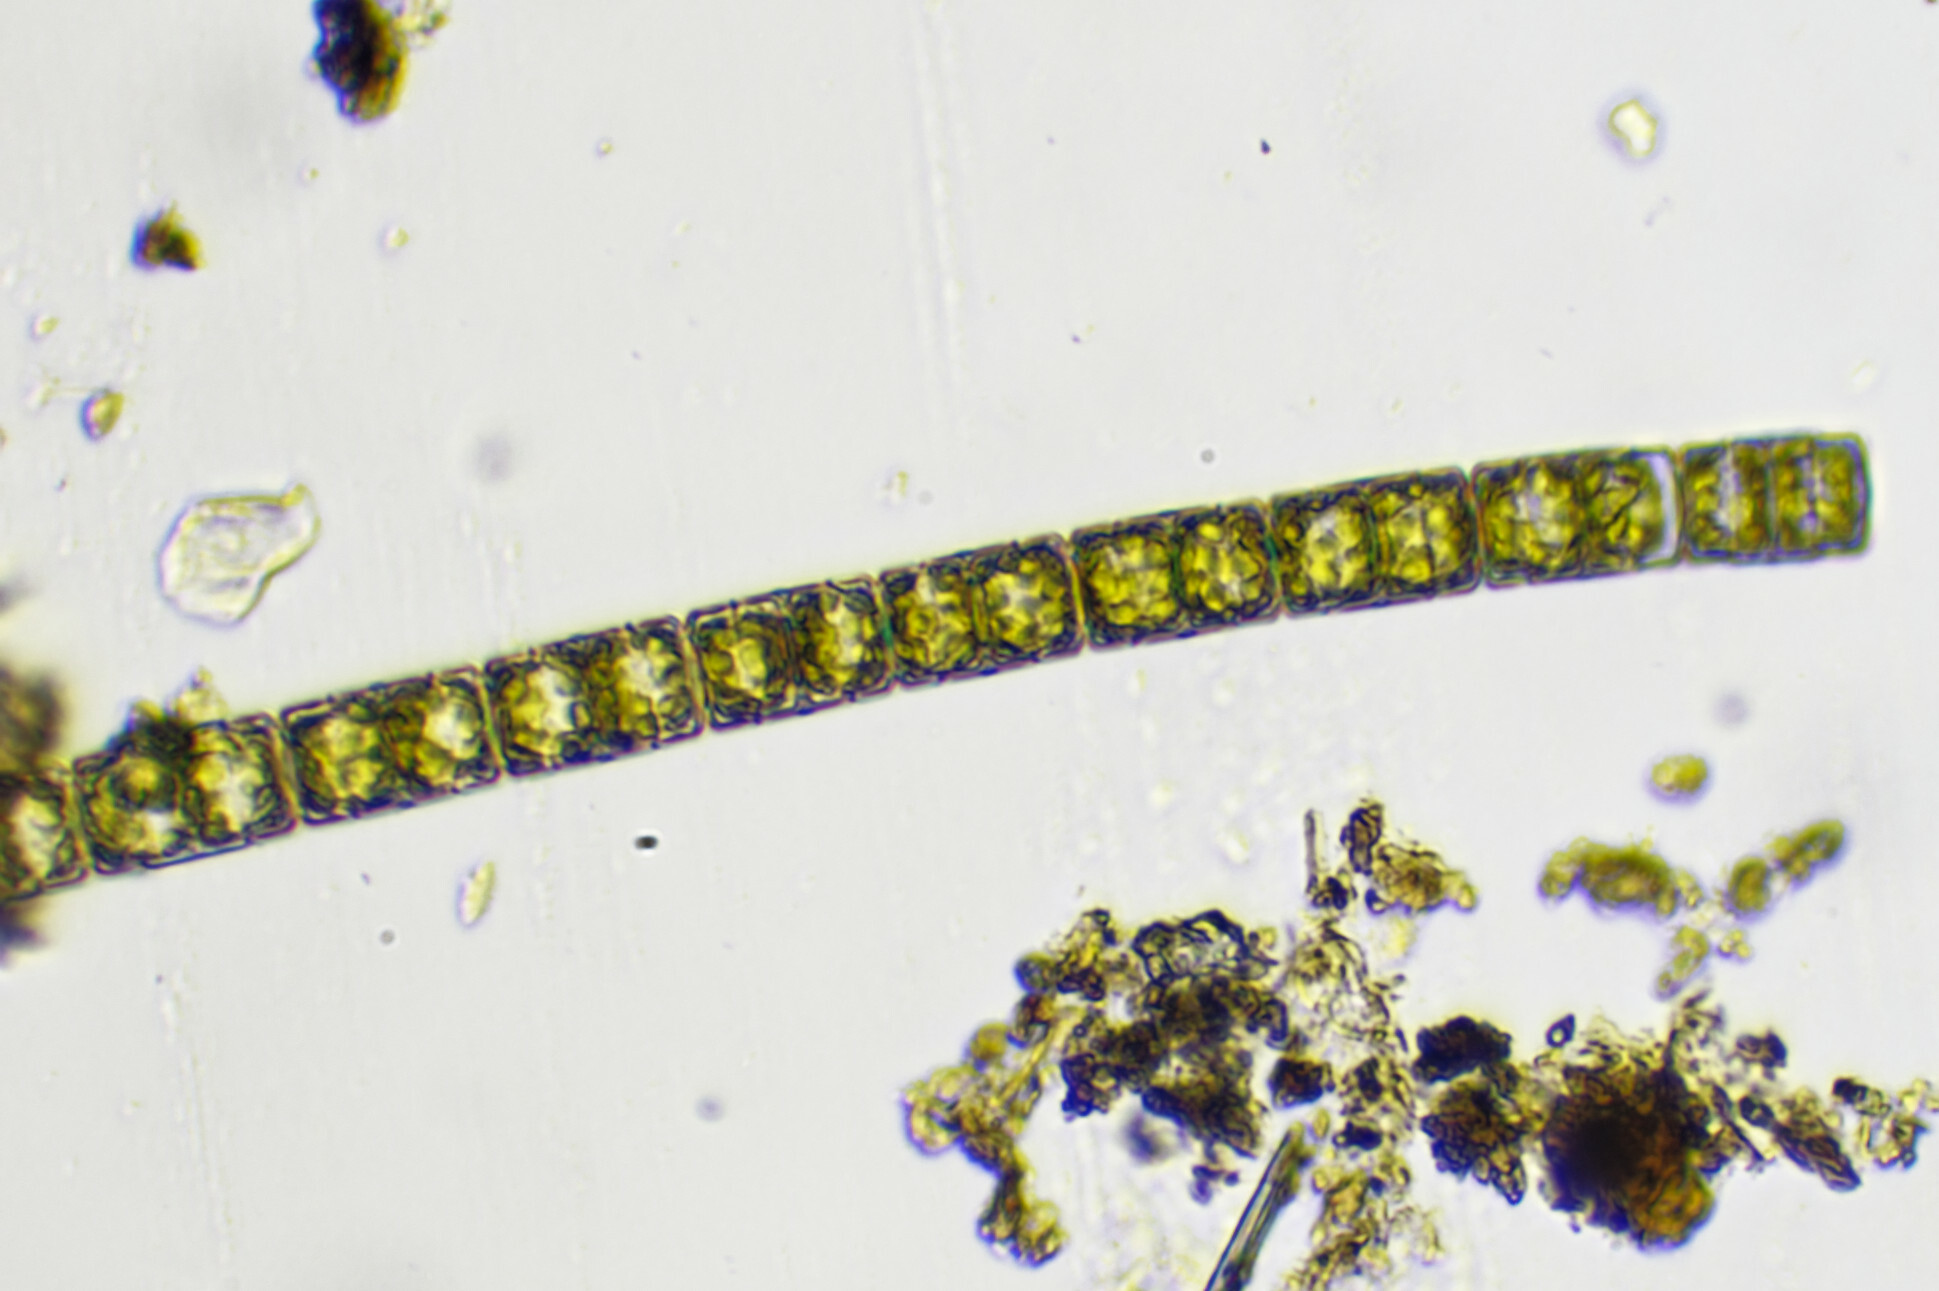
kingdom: Chromista
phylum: Ochrophyta
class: Bacillariophyceae
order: Melosirales
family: Melosiraceae
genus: Melosira
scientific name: Melosira varians
